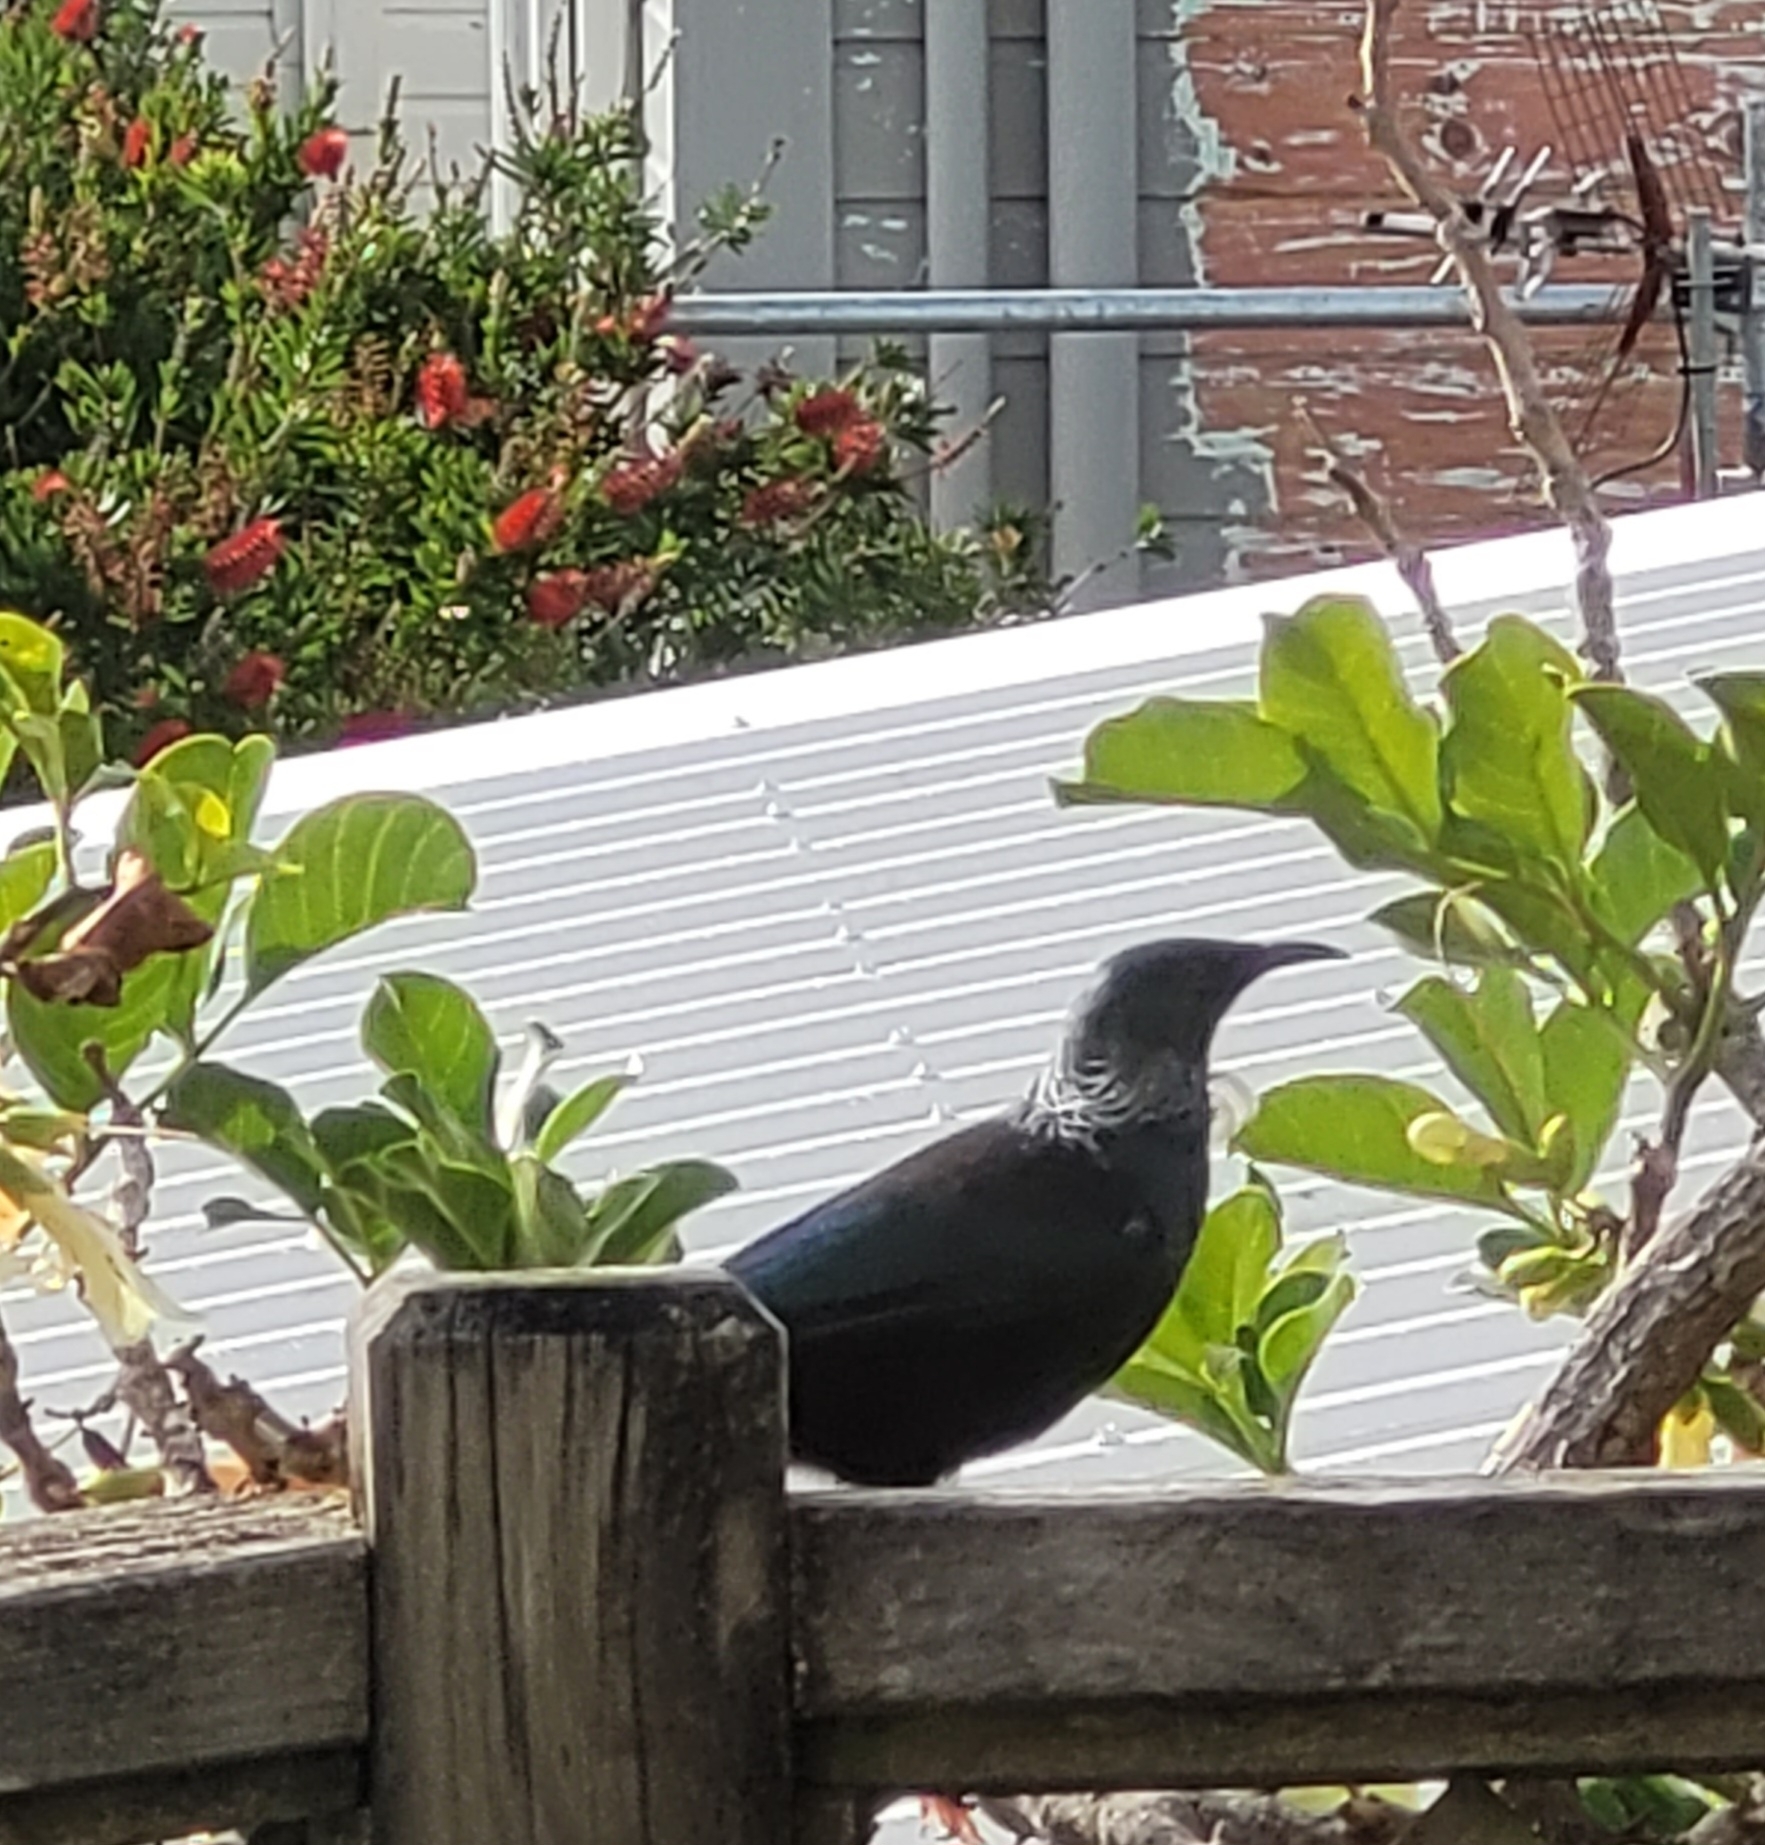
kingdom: Animalia
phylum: Chordata
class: Aves
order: Passeriformes
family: Meliphagidae
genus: Prosthemadera
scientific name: Prosthemadera novaeseelandiae
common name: Tui
